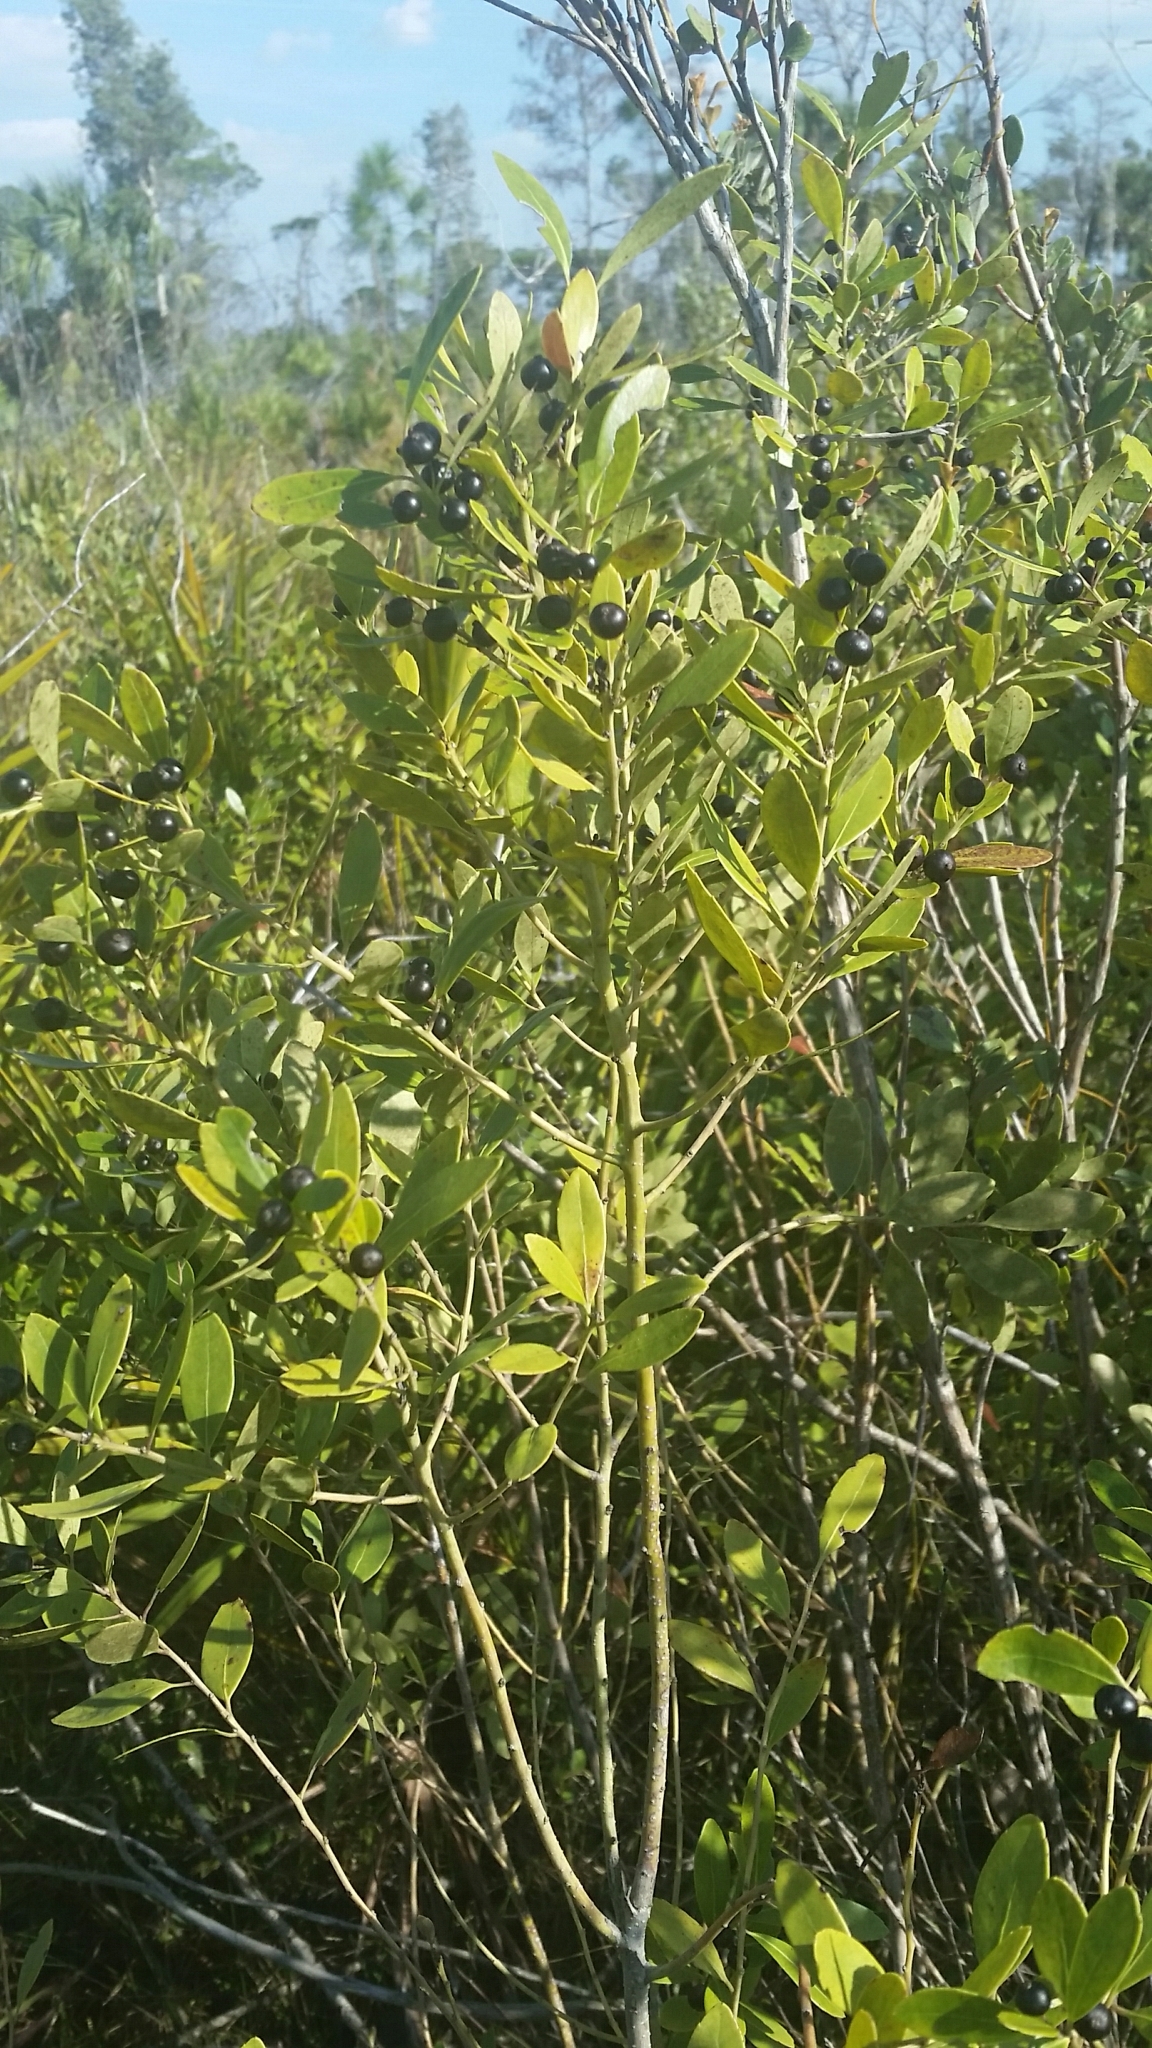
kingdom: Plantae
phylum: Tracheophyta
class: Magnoliopsida
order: Aquifoliales
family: Aquifoliaceae
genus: Ilex
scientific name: Ilex glabra
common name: Bitter gallberry
